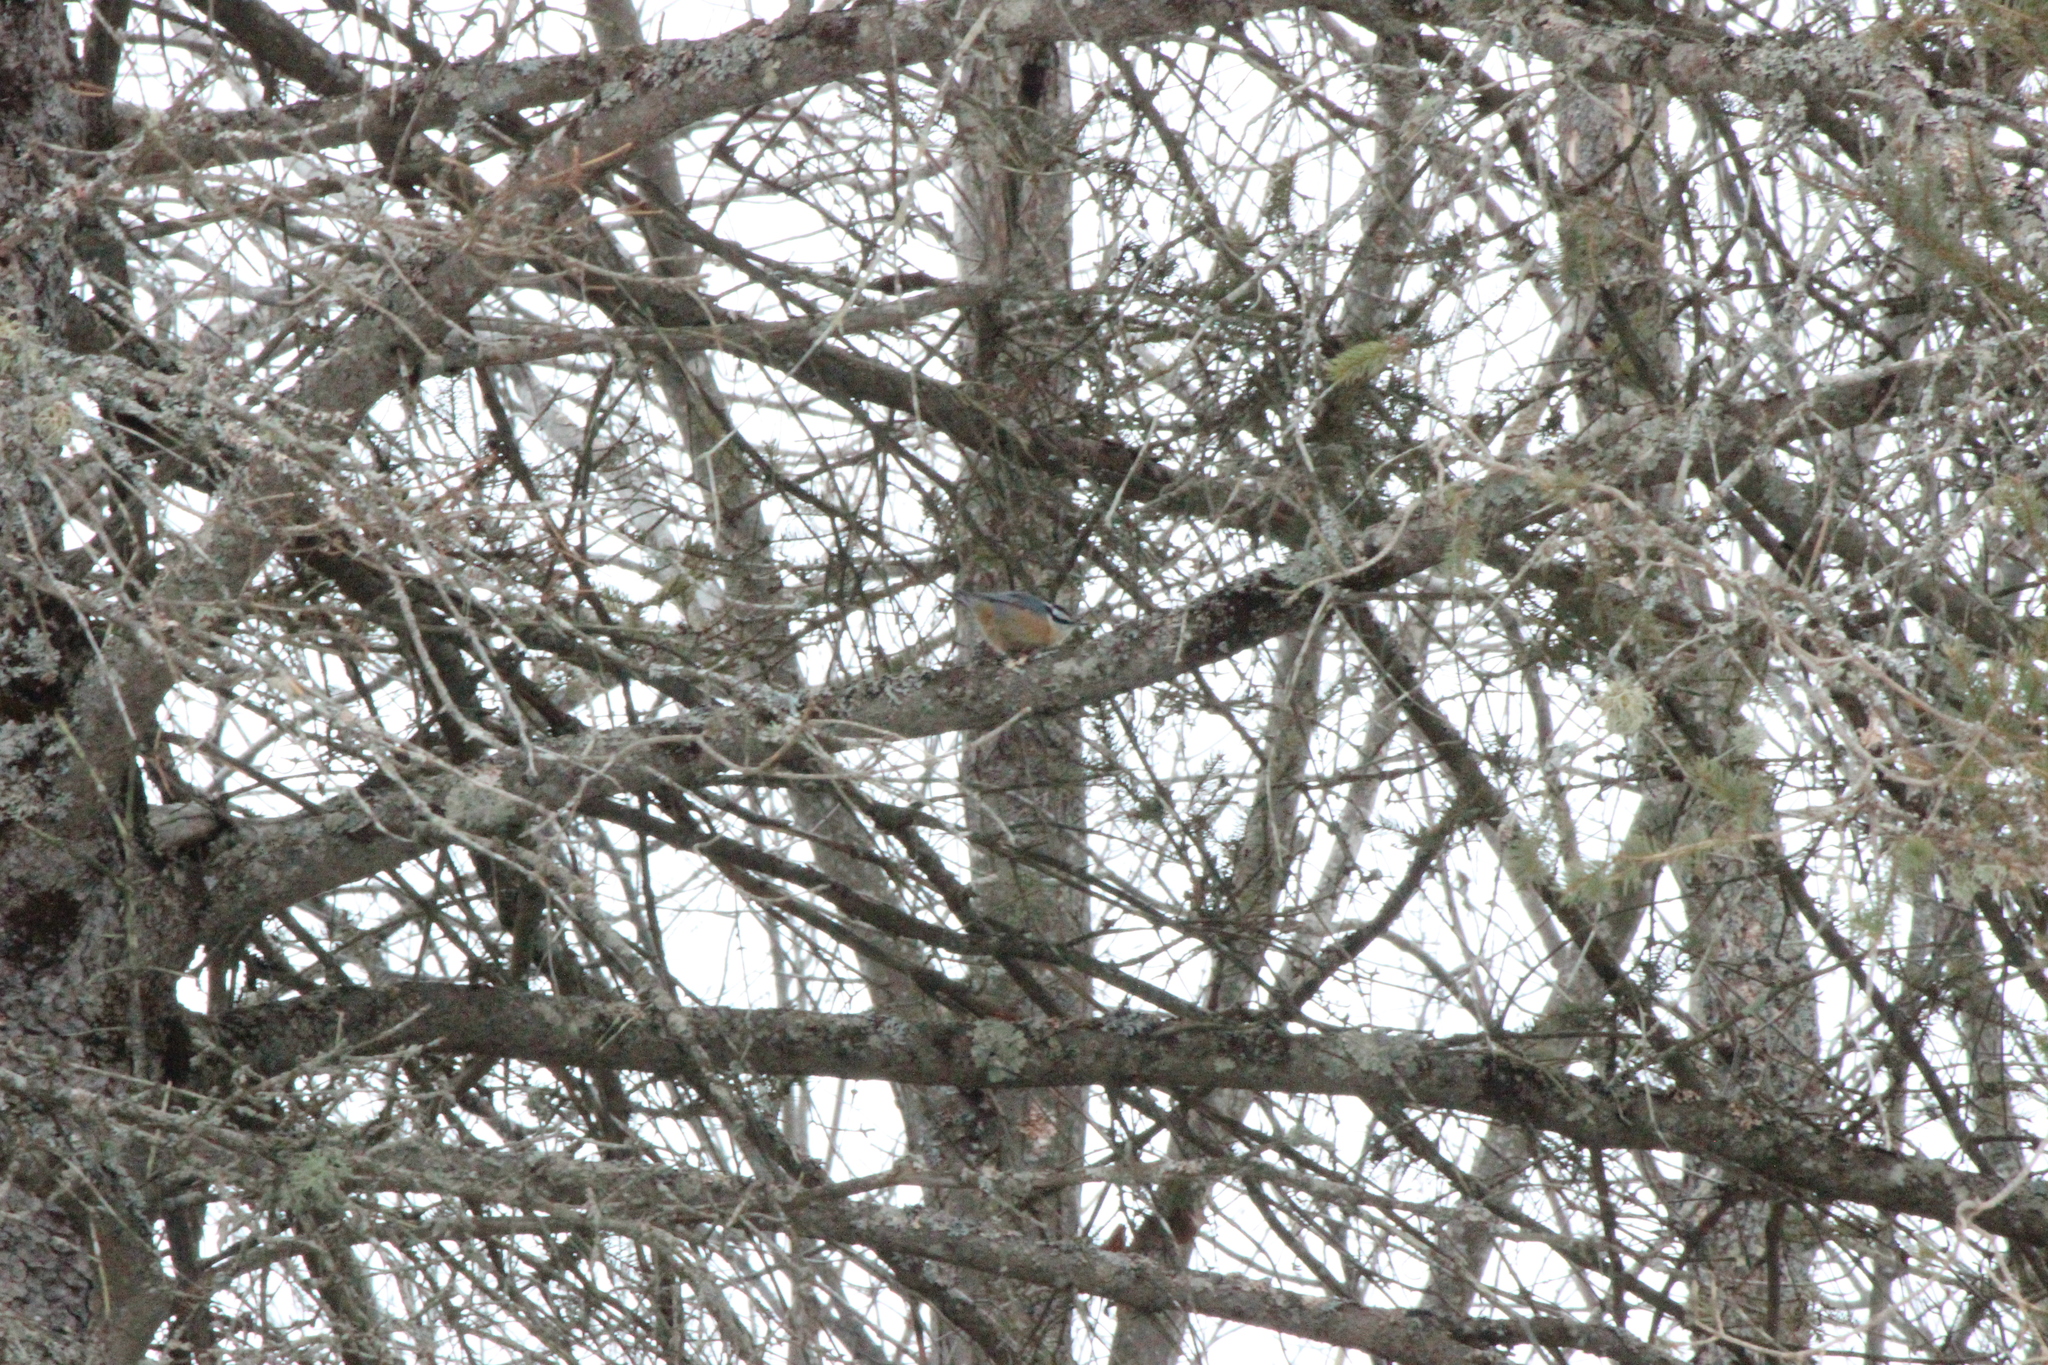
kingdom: Animalia
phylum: Chordata
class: Aves
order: Passeriformes
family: Sittidae
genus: Sitta
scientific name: Sitta canadensis
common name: Red-breasted nuthatch
